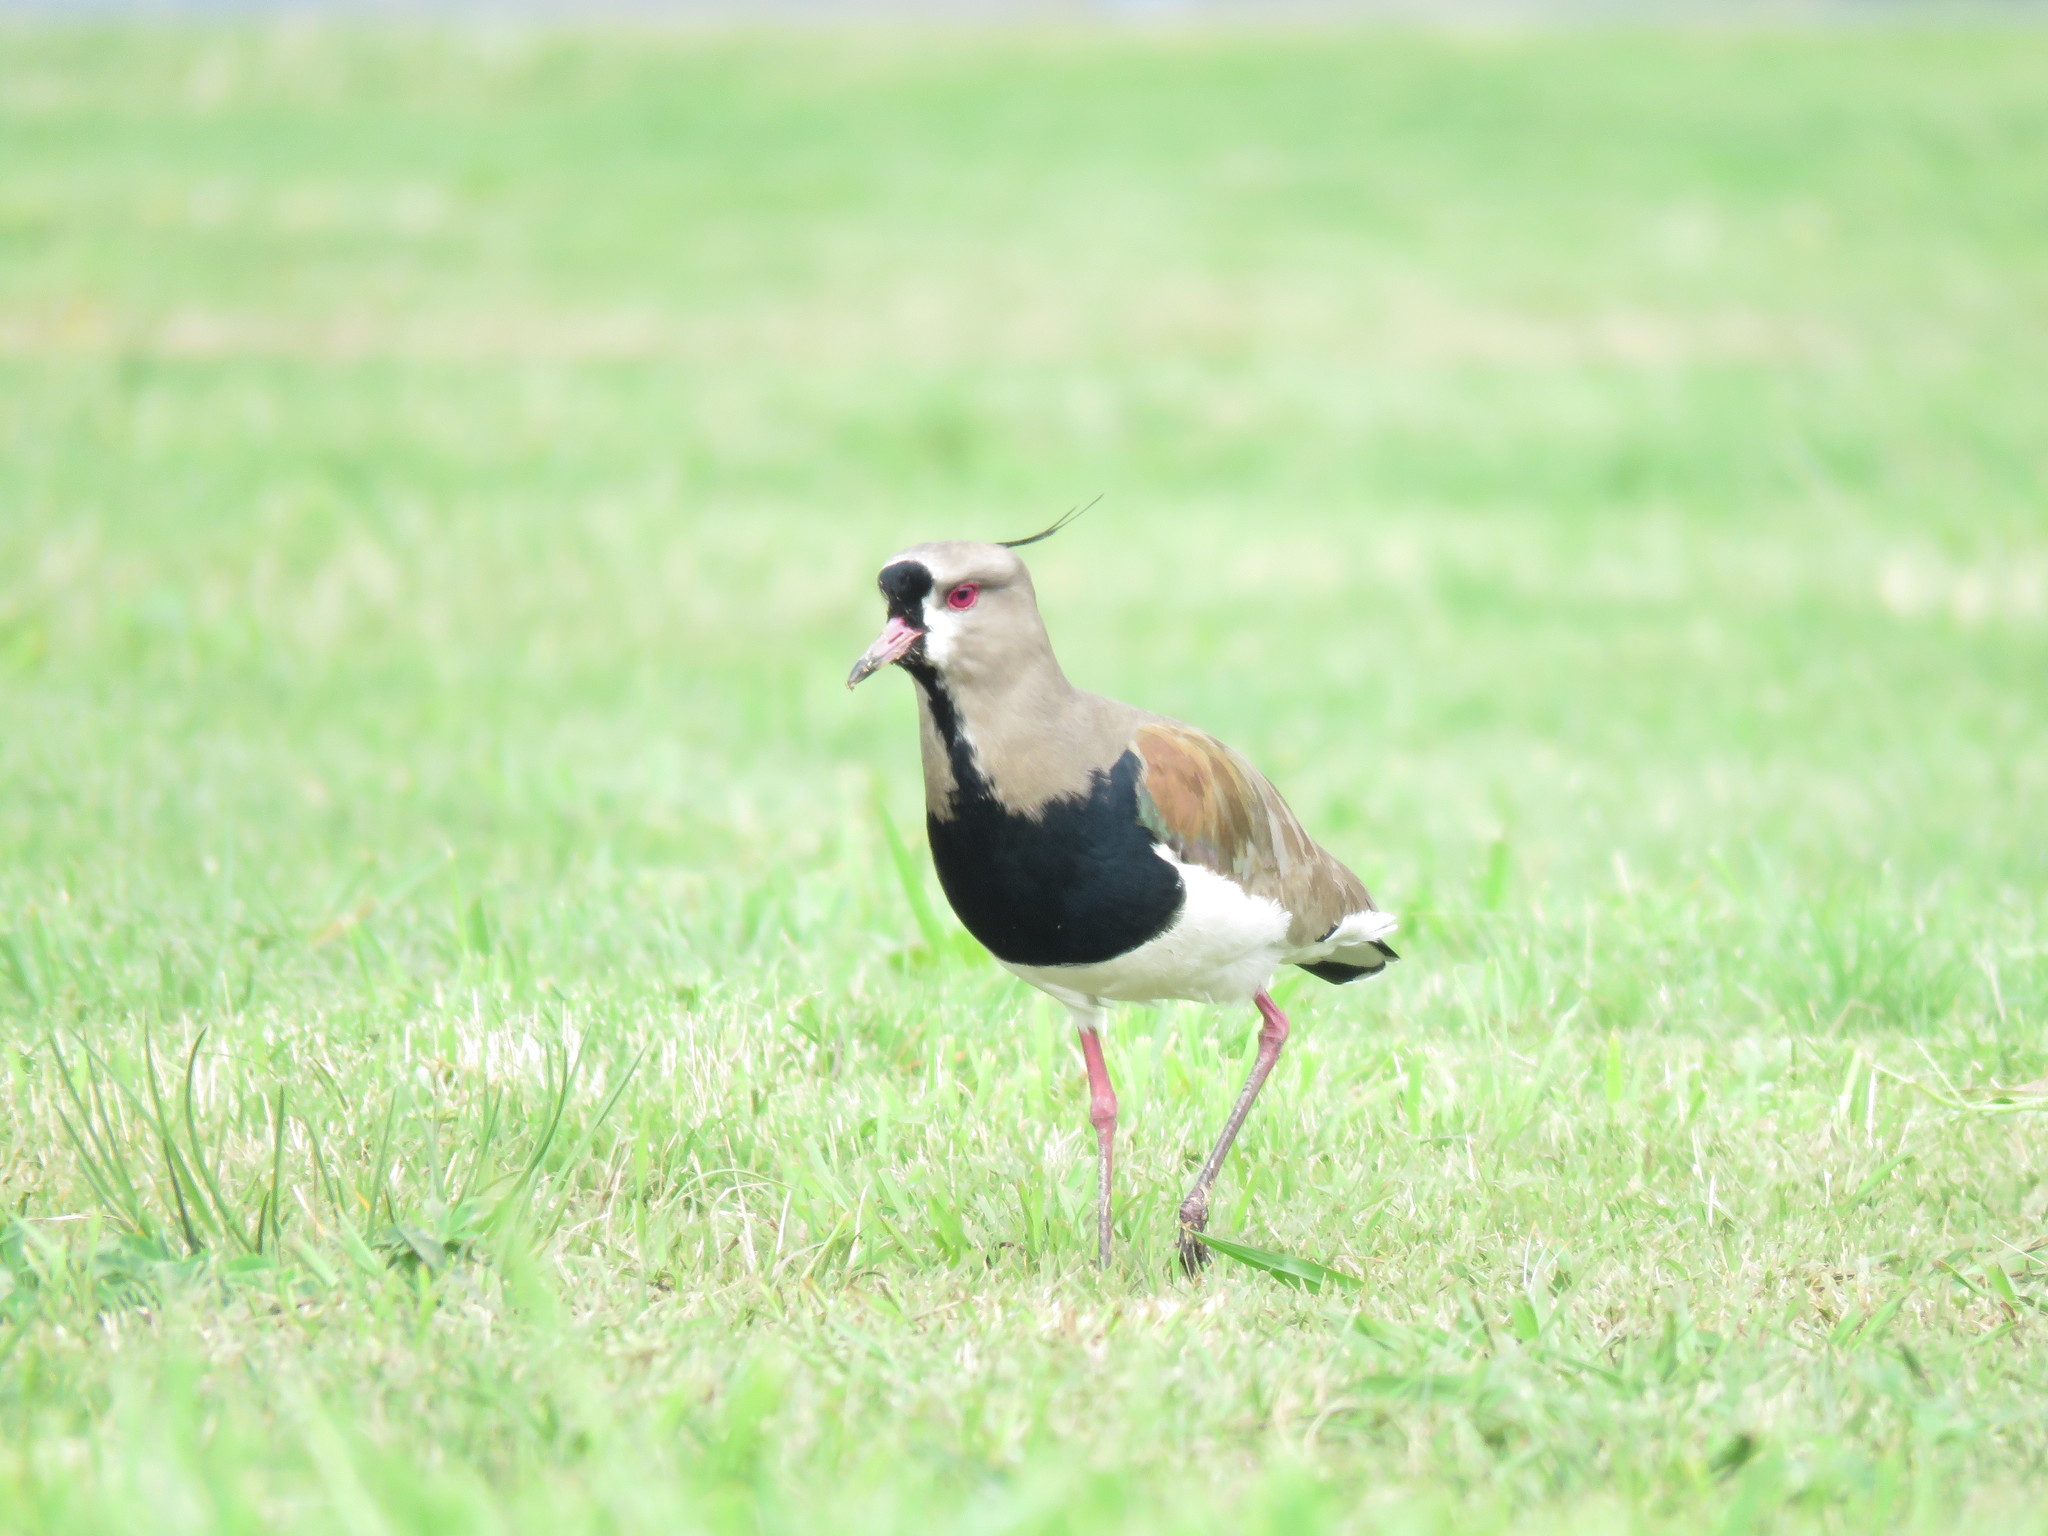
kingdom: Animalia
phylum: Chordata
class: Aves
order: Charadriiformes
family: Charadriidae
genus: Vanellus
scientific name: Vanellus chilensis
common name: Southern lapwing
